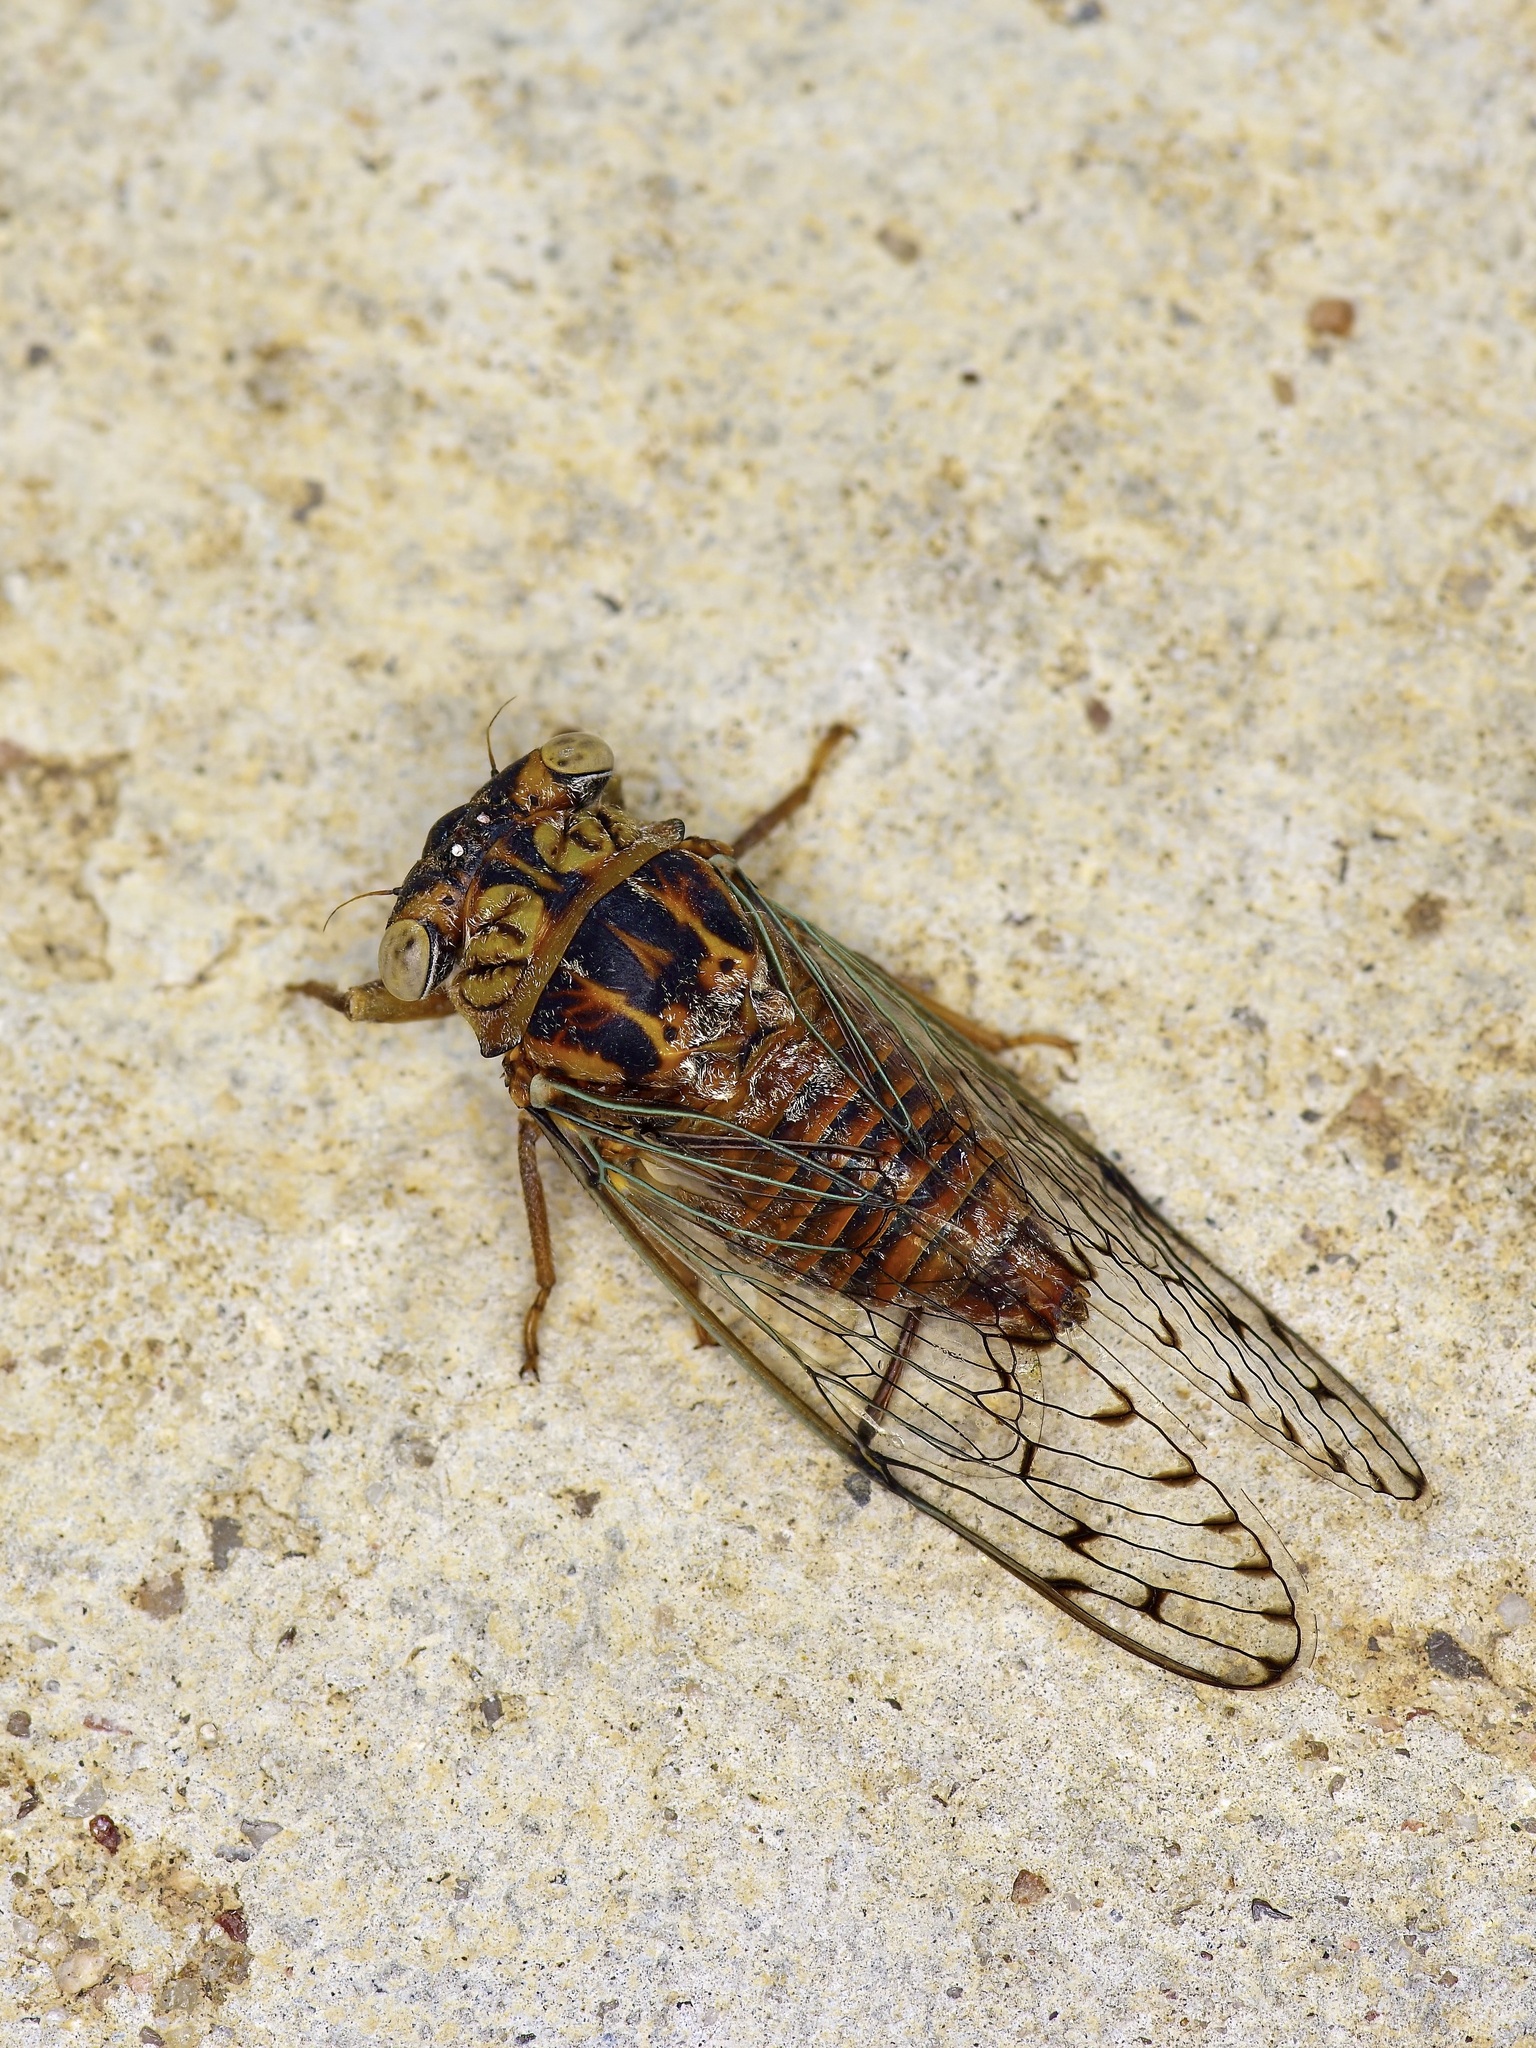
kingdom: Animalia
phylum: Arthropoda
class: Insecta
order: Hemiptera
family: Cicadidae
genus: Pacarina
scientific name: Pacarina puella
